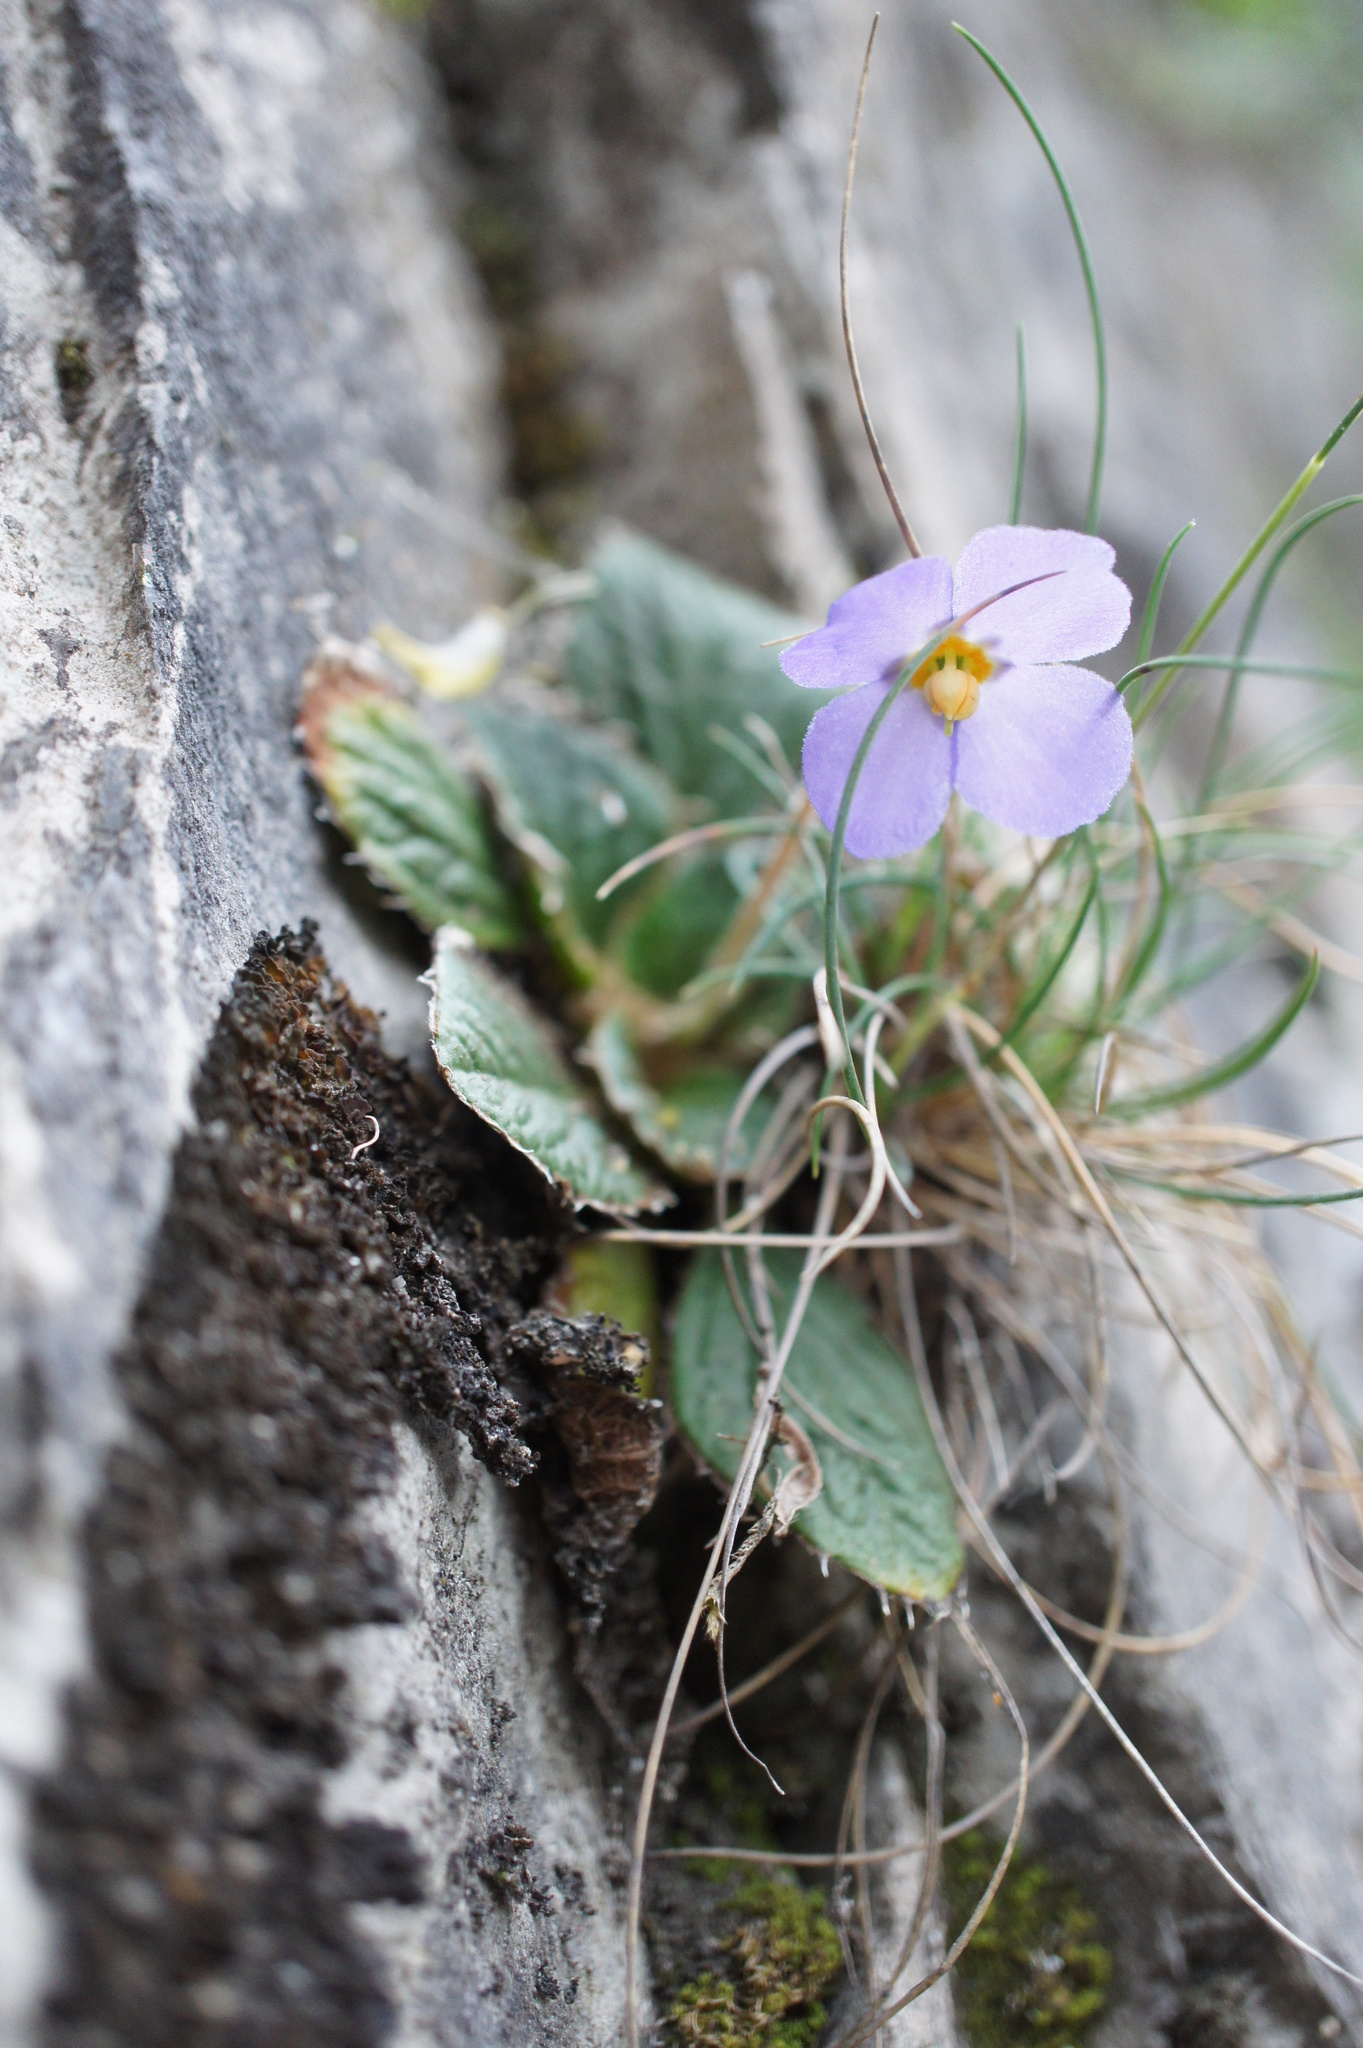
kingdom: Plantae
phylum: Tracheophyta
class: Magnoliopsida
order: Lamiales
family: Gesneriaceae
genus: Ramonda
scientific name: Ramonda nathaliae
